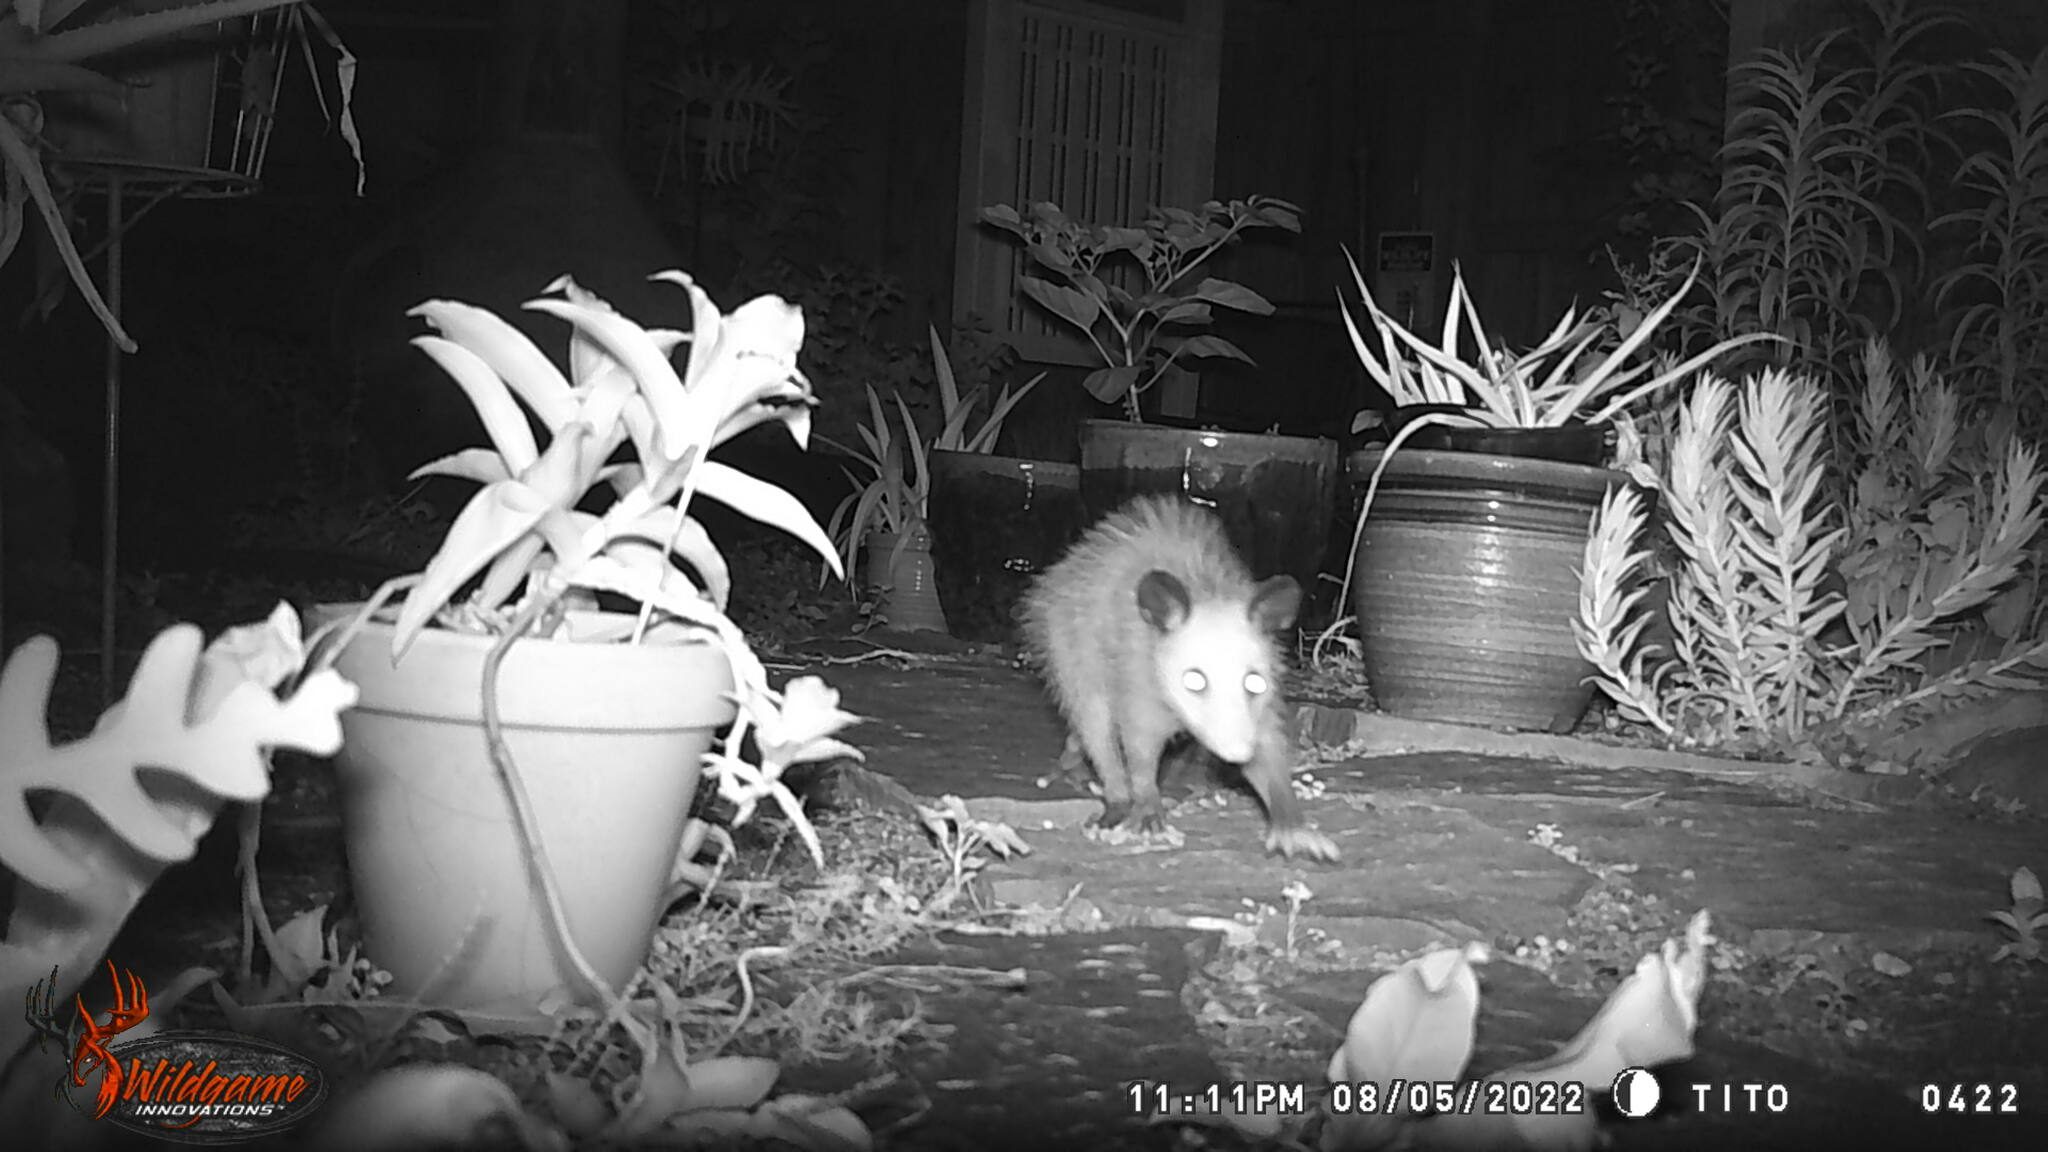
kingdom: Animalia
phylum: Chordata
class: Mammalia
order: Didelphimorphia
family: Didelphidae
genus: Didelphis
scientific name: Didelphis virginiana
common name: Virginia opossum
